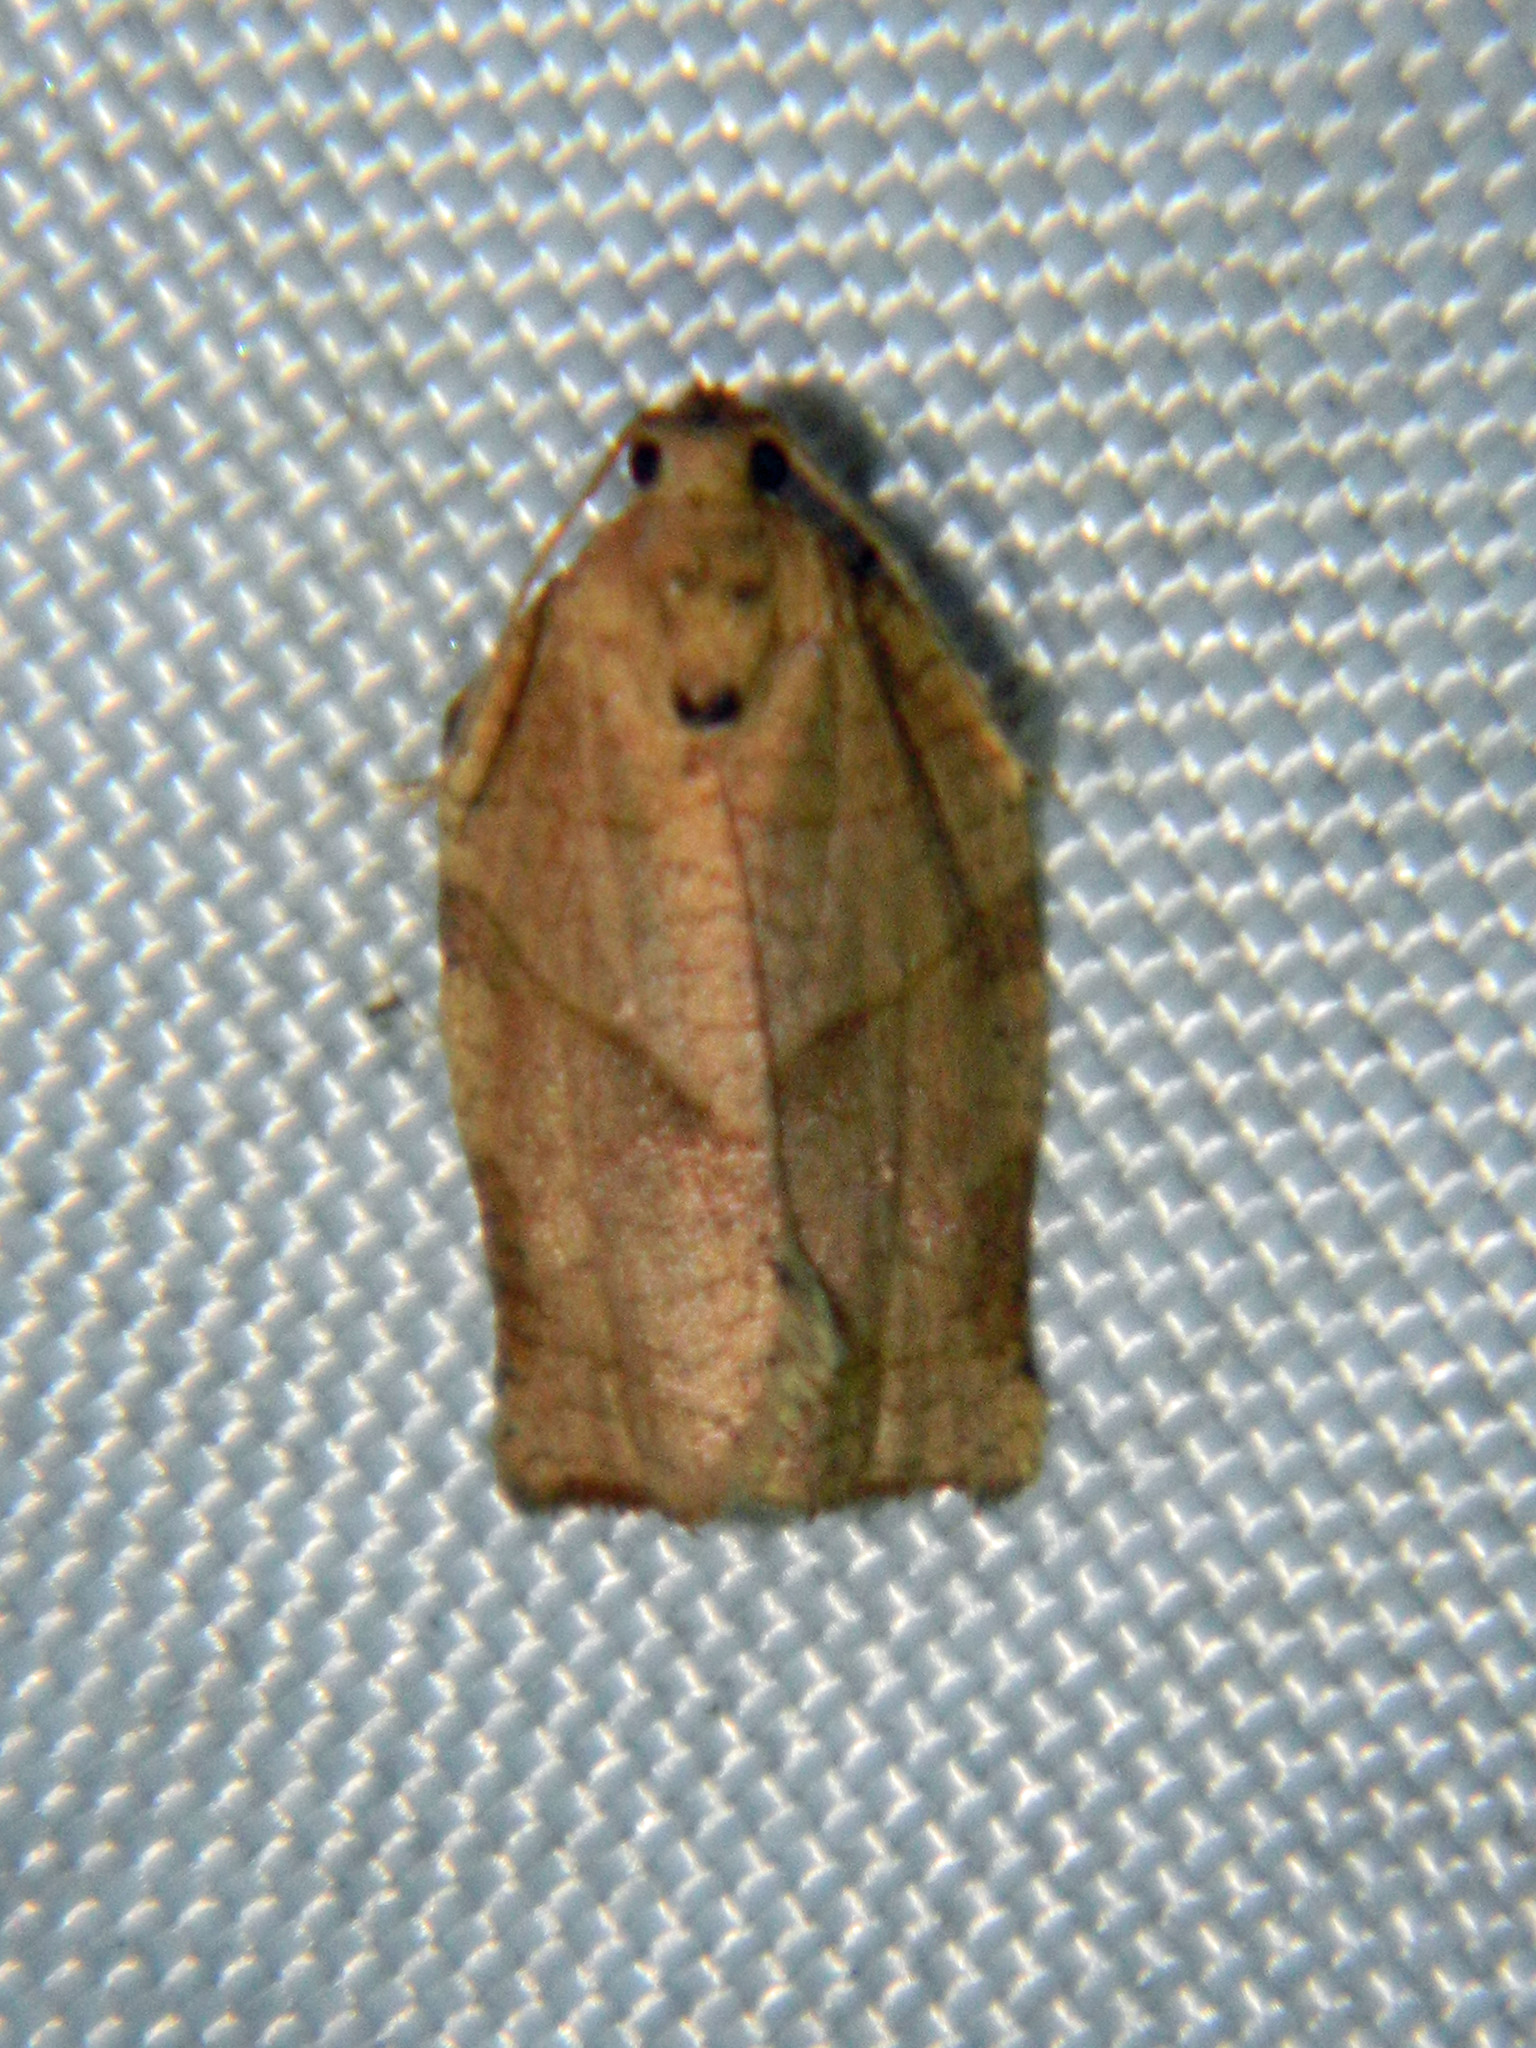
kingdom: Animalia
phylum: Arthropoda
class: Insecta
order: Lepidoptera
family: Tortricidae
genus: Choristoneura
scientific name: Choristoneura rosaceana
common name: Oblique-banded leafroller moth
